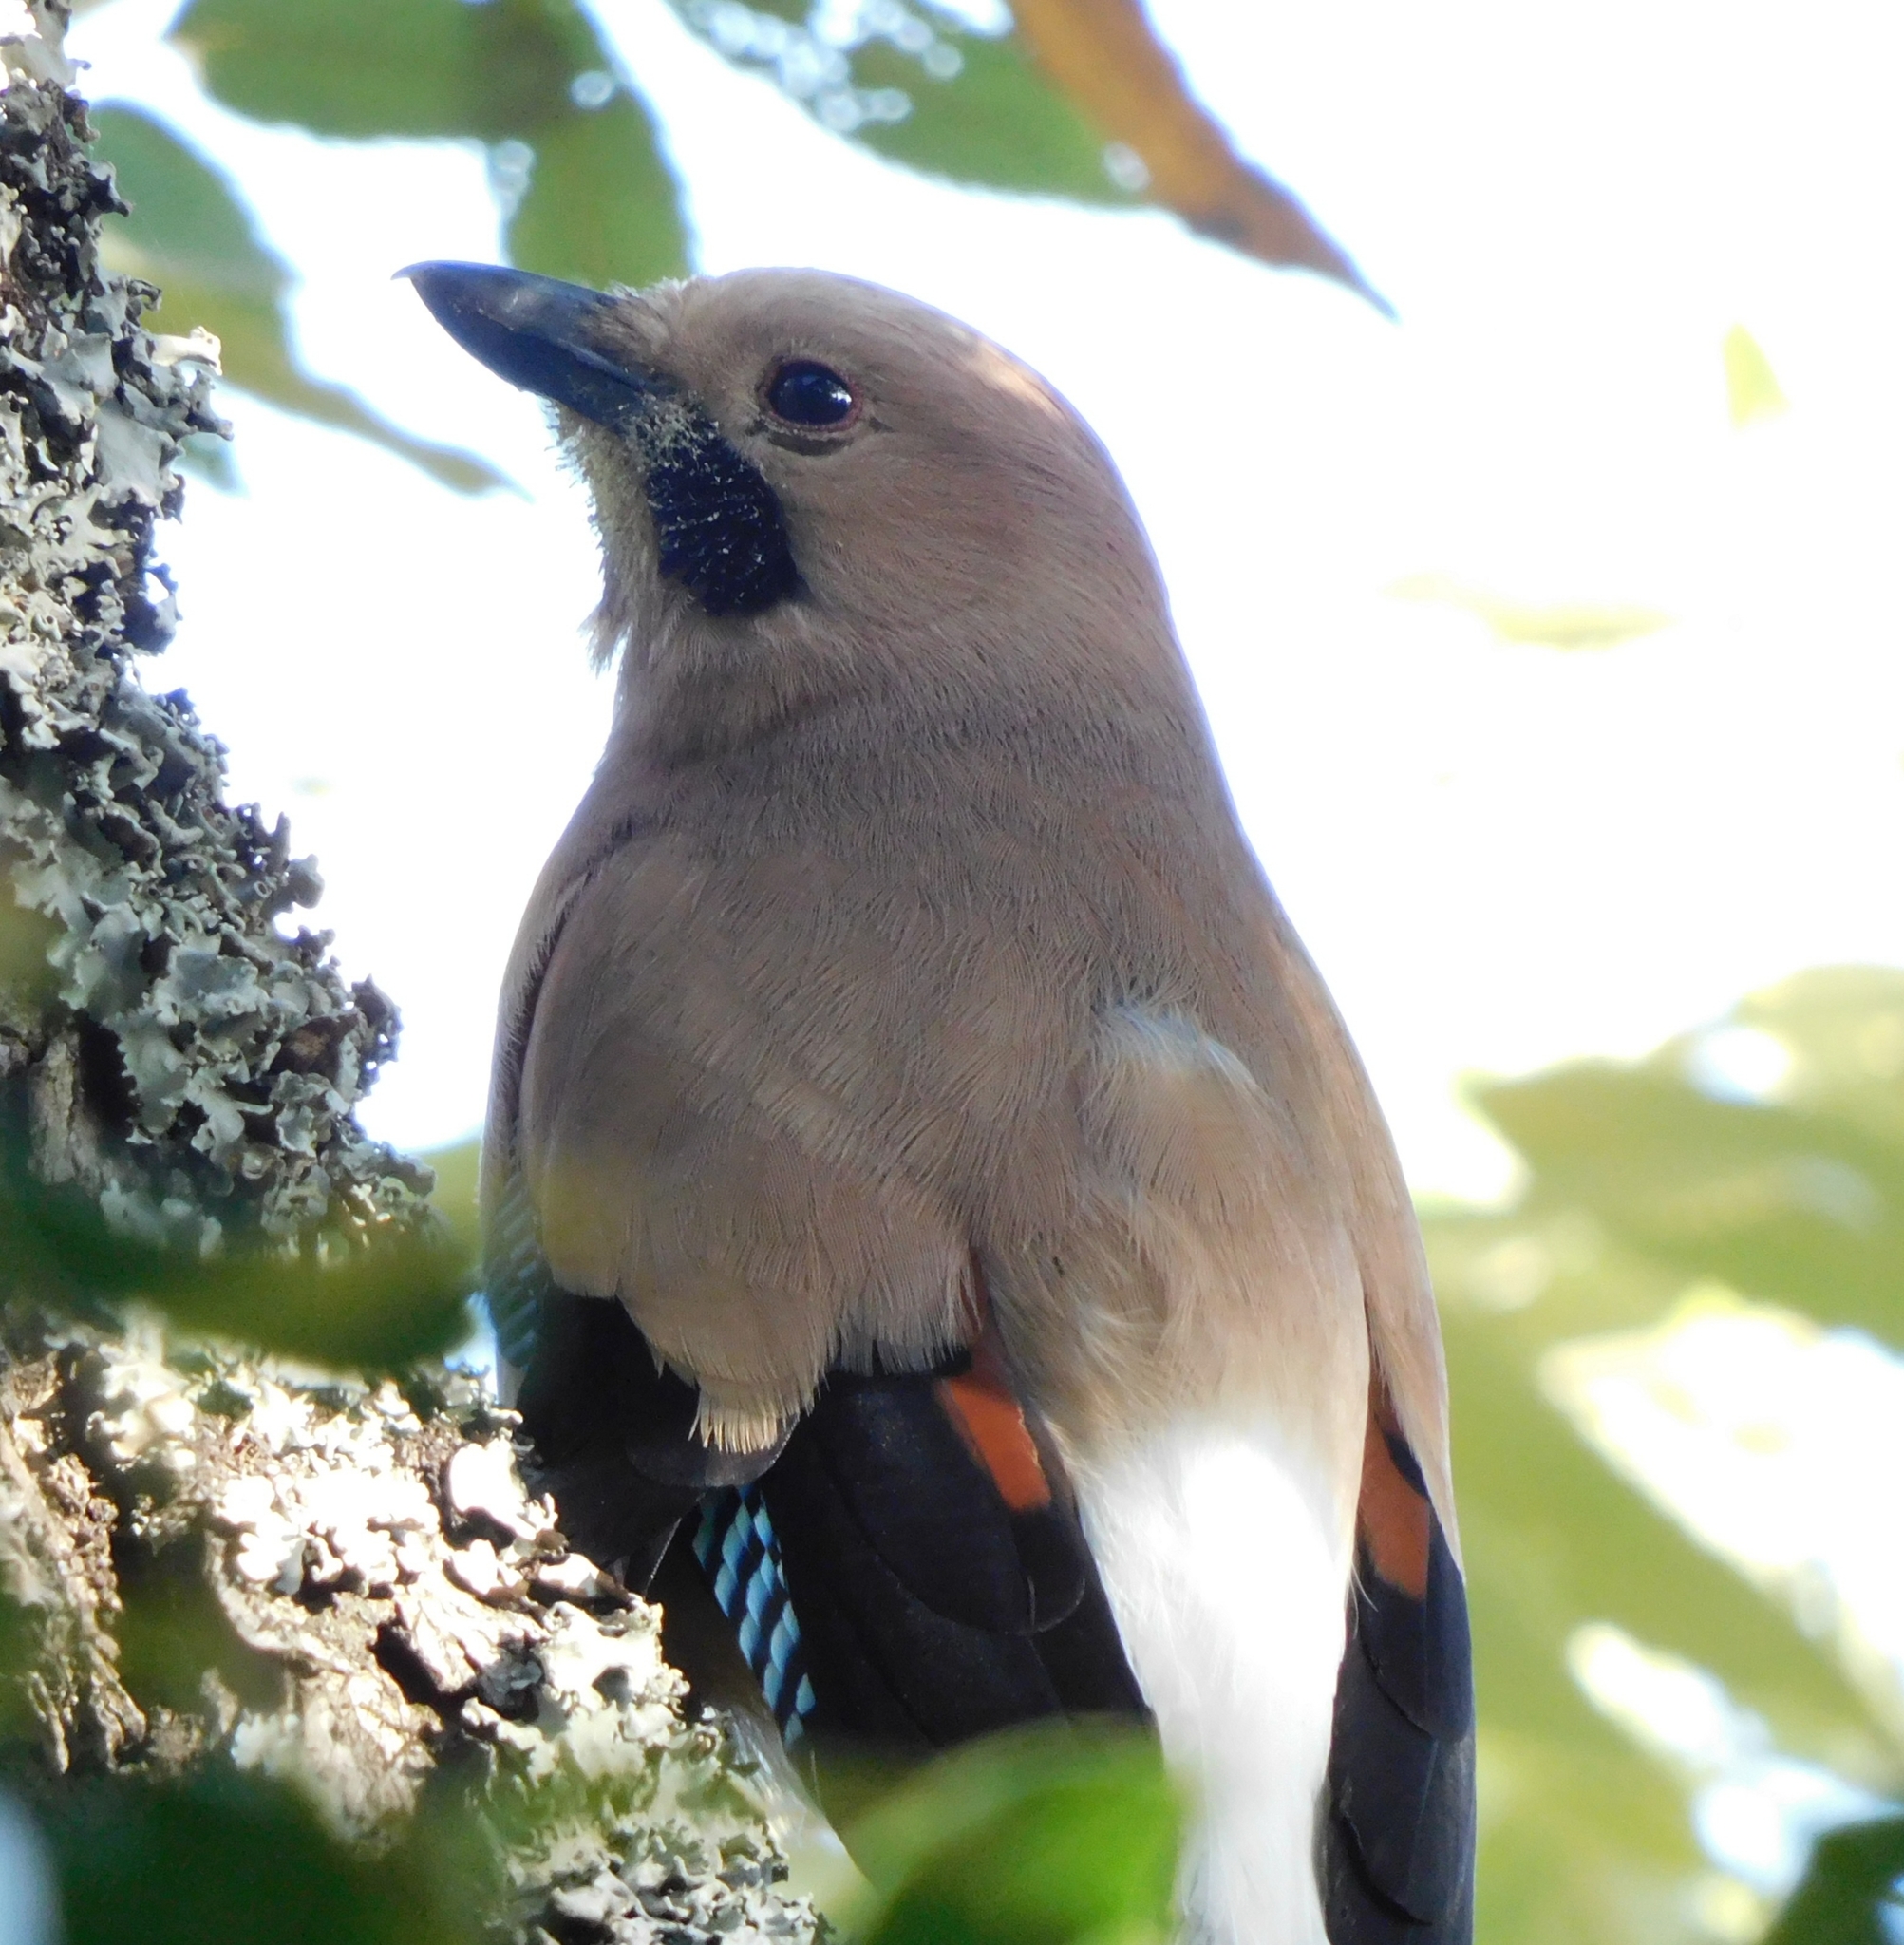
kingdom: Animalia
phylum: Chordata
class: Aves
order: Passeriformes
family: Corvidae
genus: Garrulus
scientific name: Garrulus glandarius
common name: Eurasian jay
